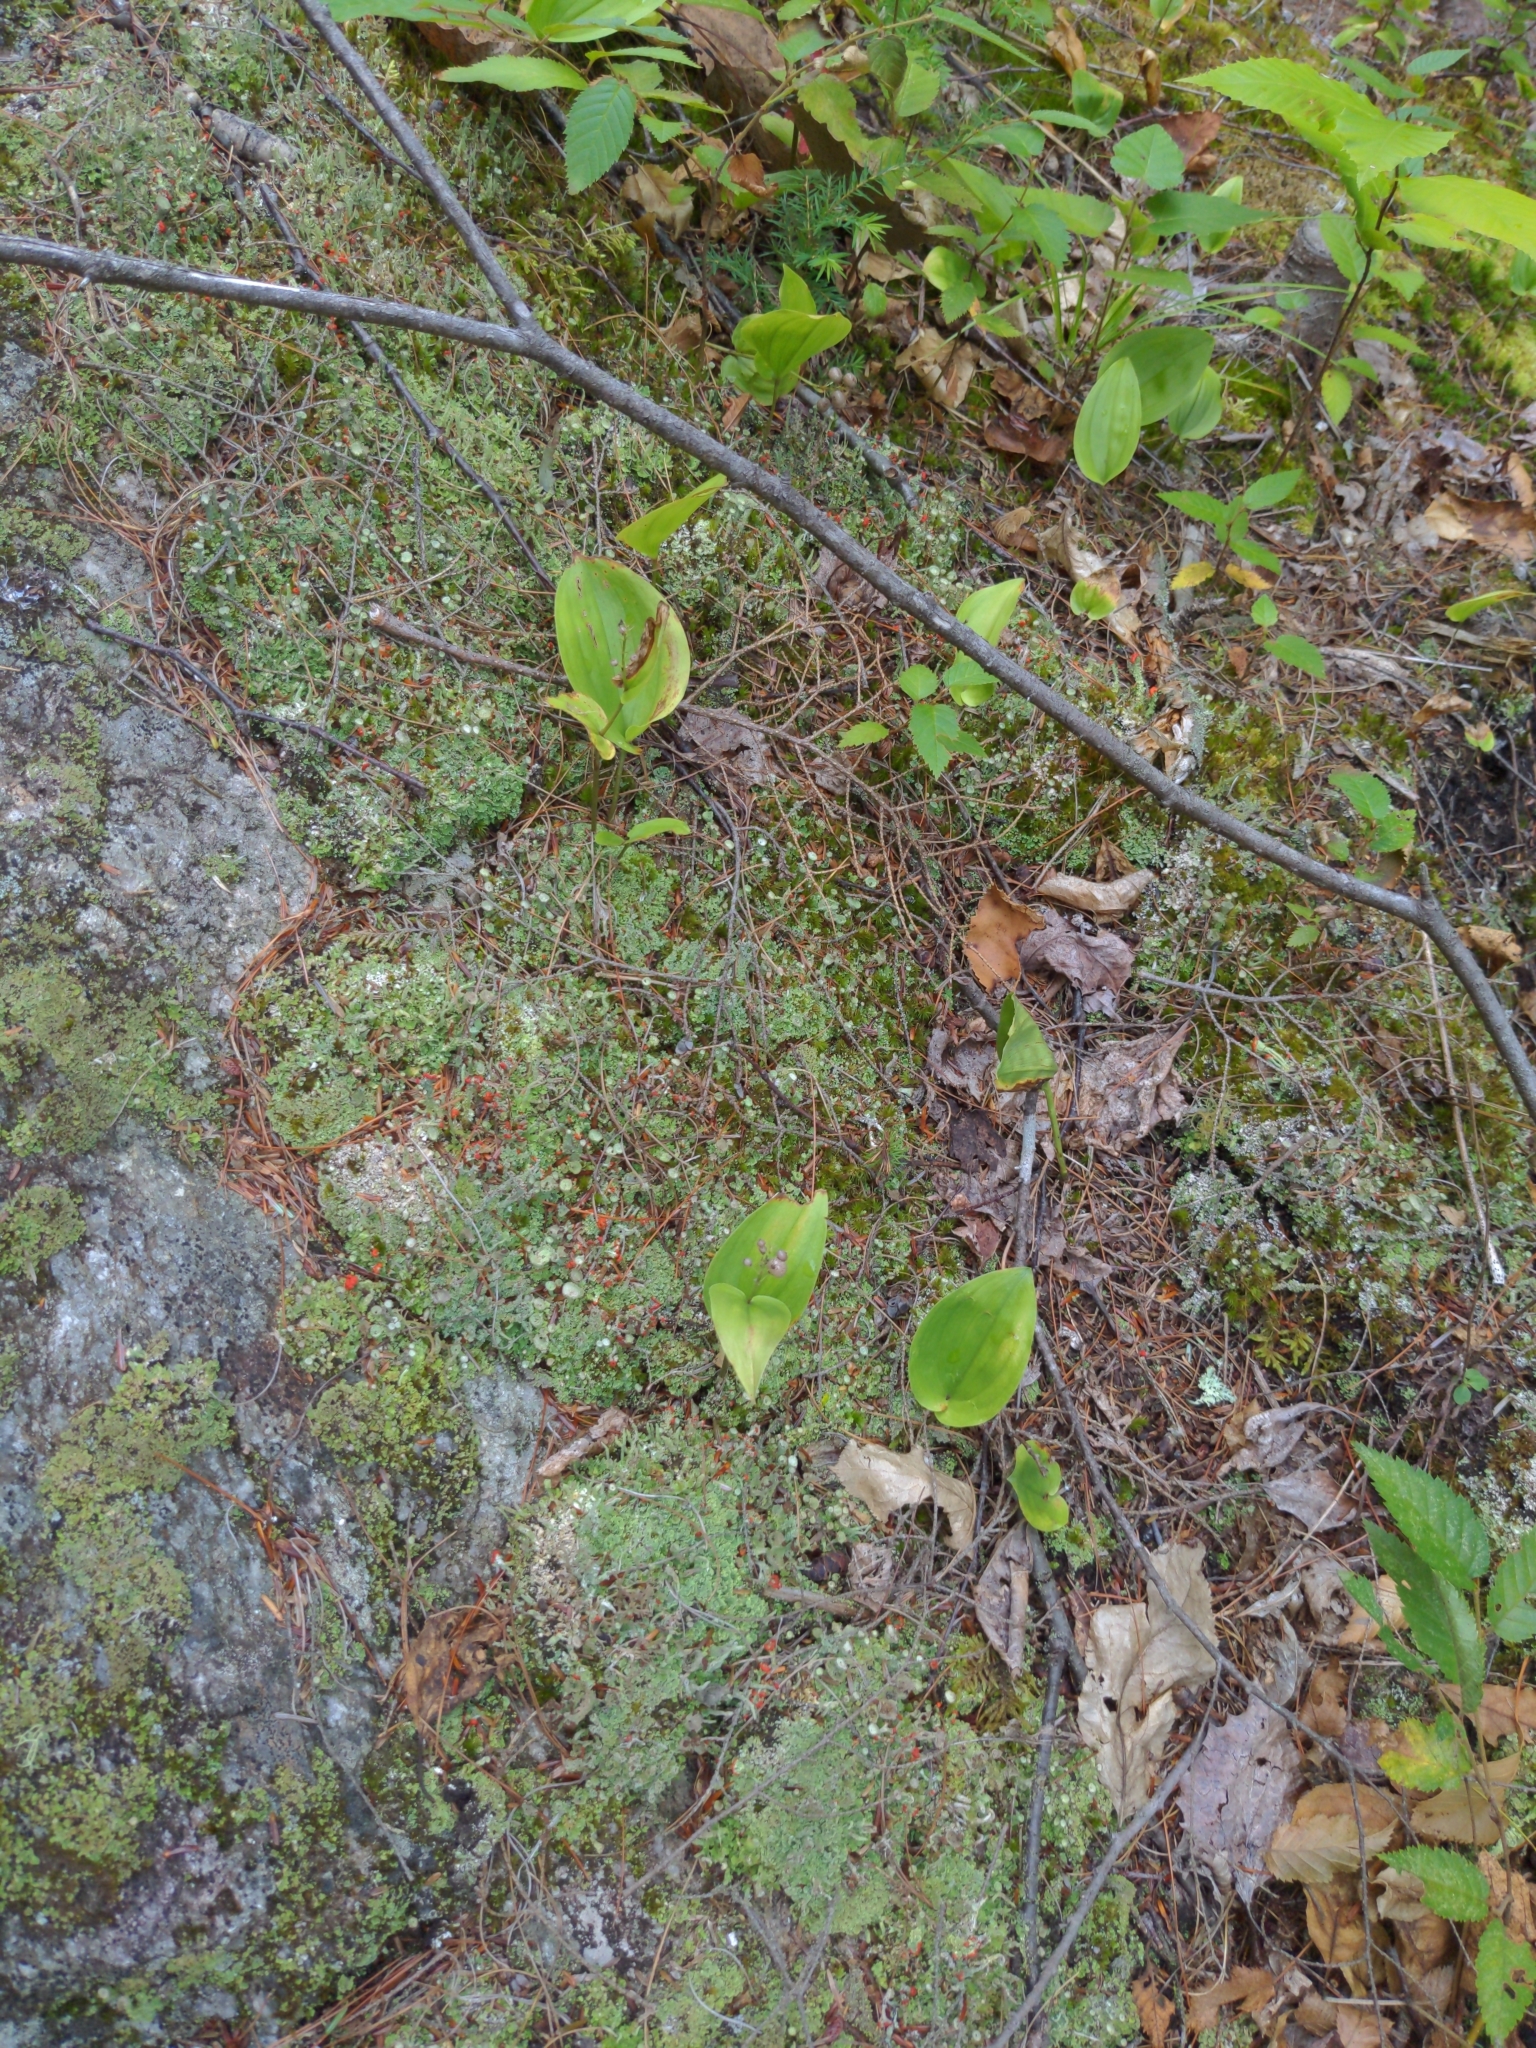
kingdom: Plantae
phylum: Tracheophyta
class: Liliopsida
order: Asparagales
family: Asparagaceae
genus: Maianthemum
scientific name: Maianthemum canadense
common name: False lily-of-the-valley
